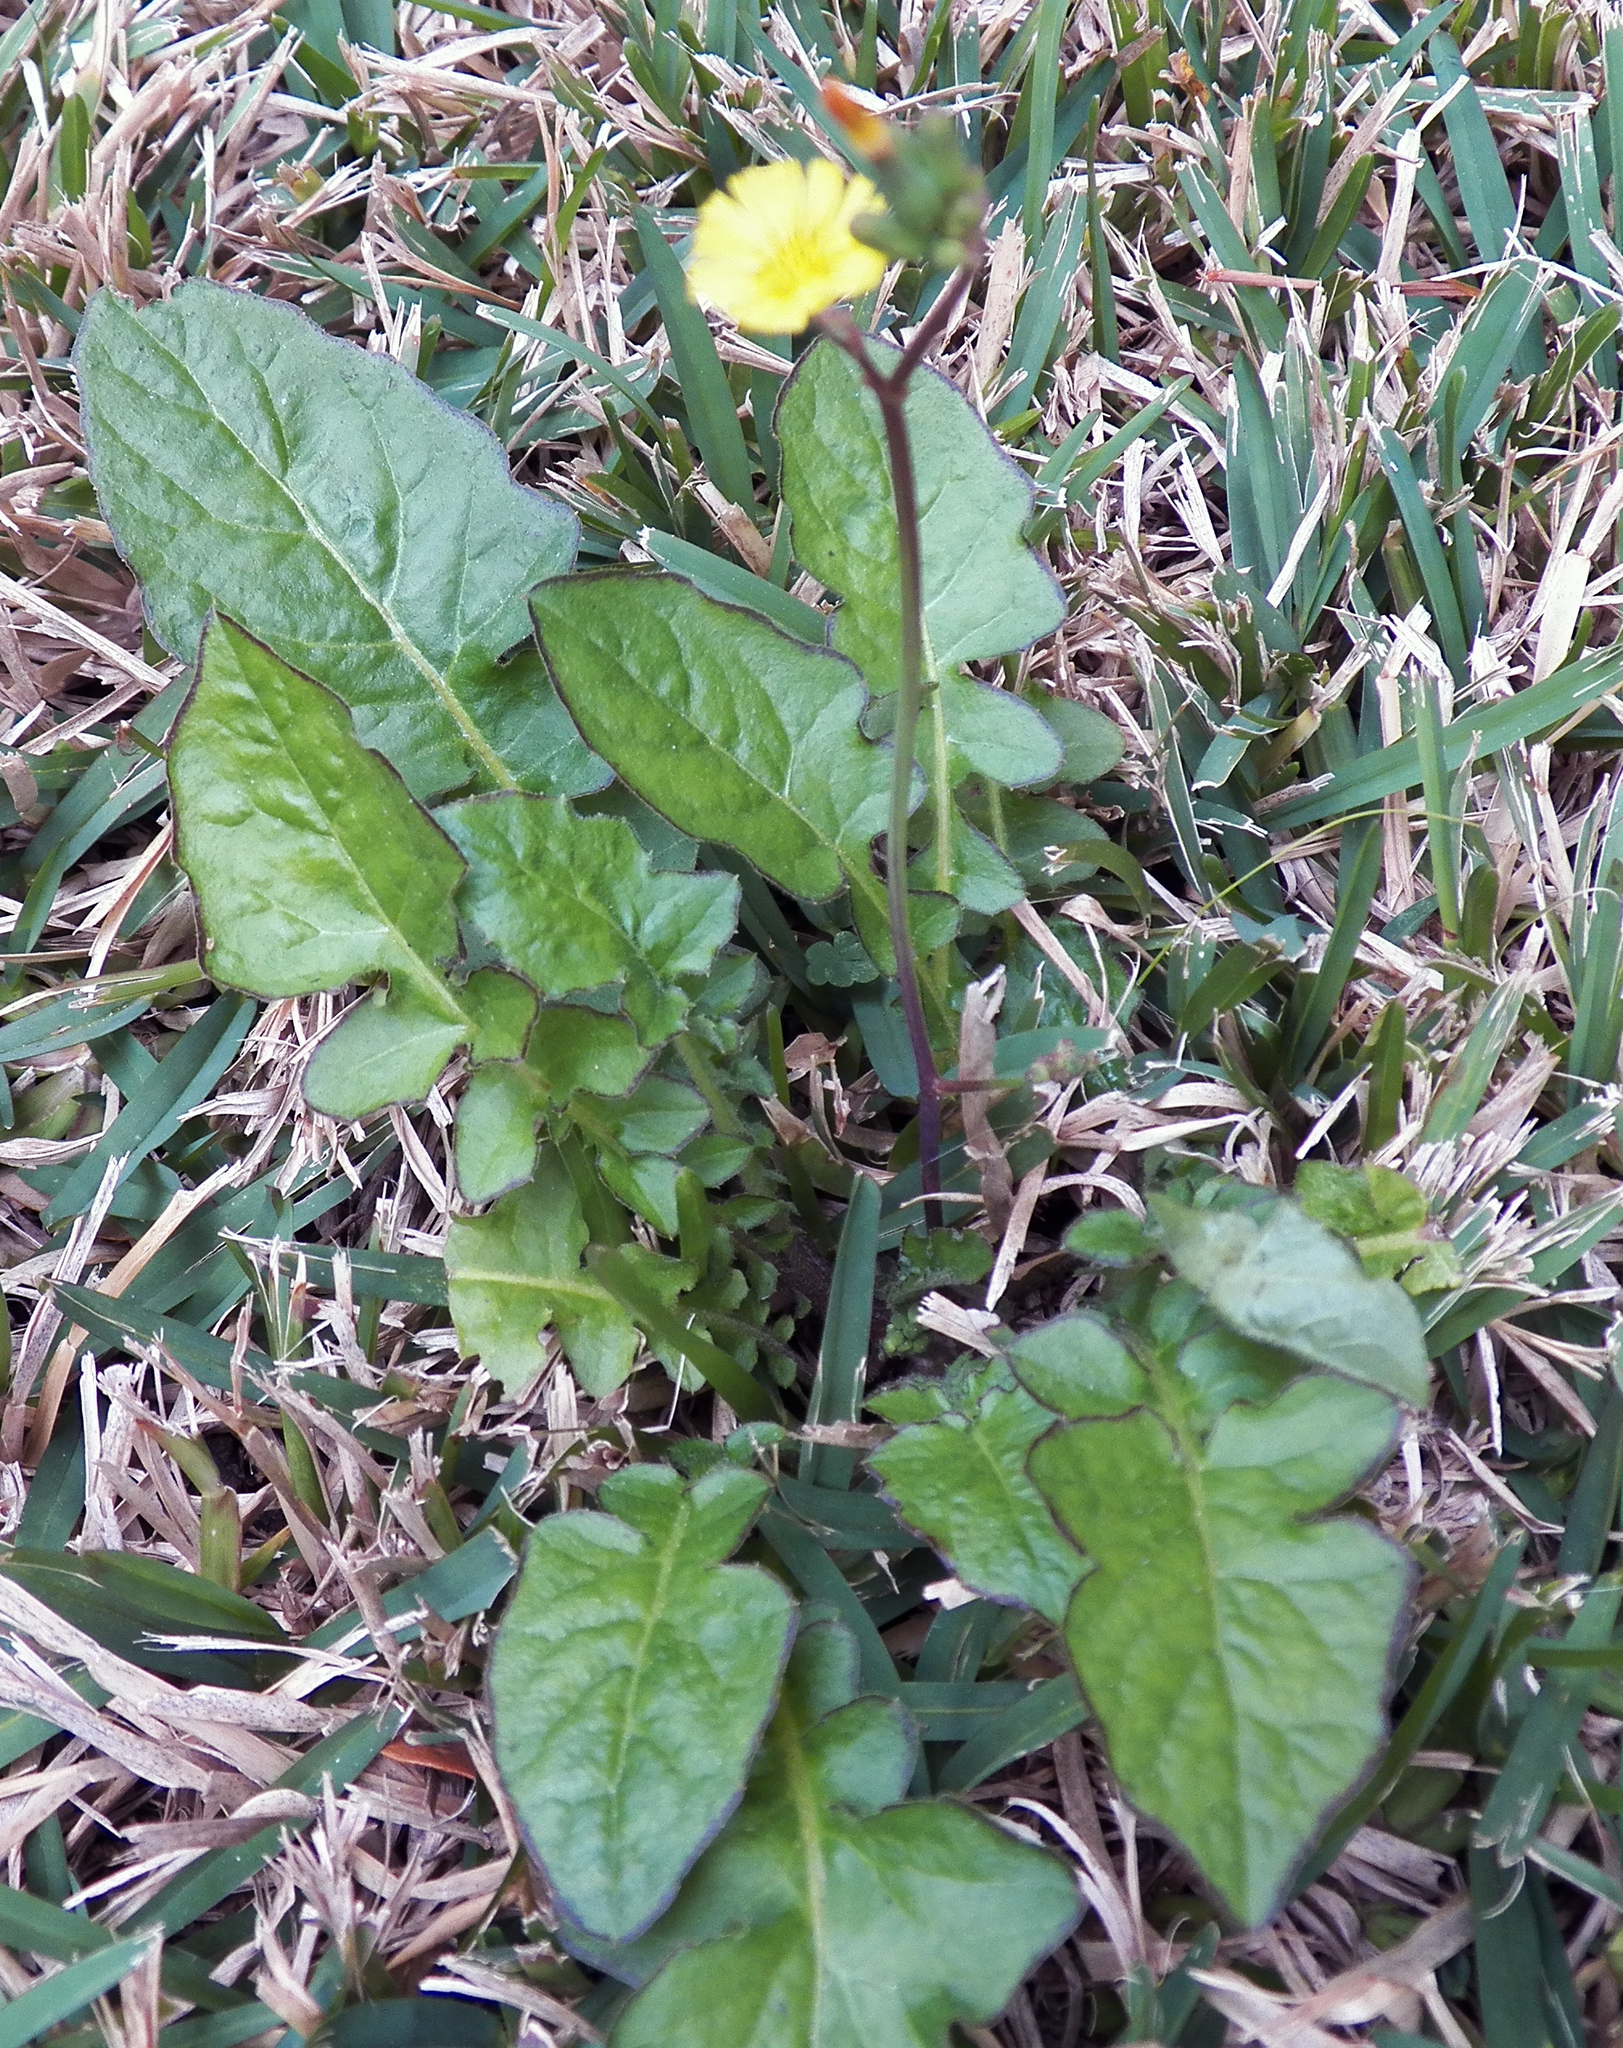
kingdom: Plantae
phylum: Tracheophyta
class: Magnoliopsida
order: Asterales
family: Asteraceae
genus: Youngia
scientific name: Youngia japonica
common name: Oriental false hawksbeard
